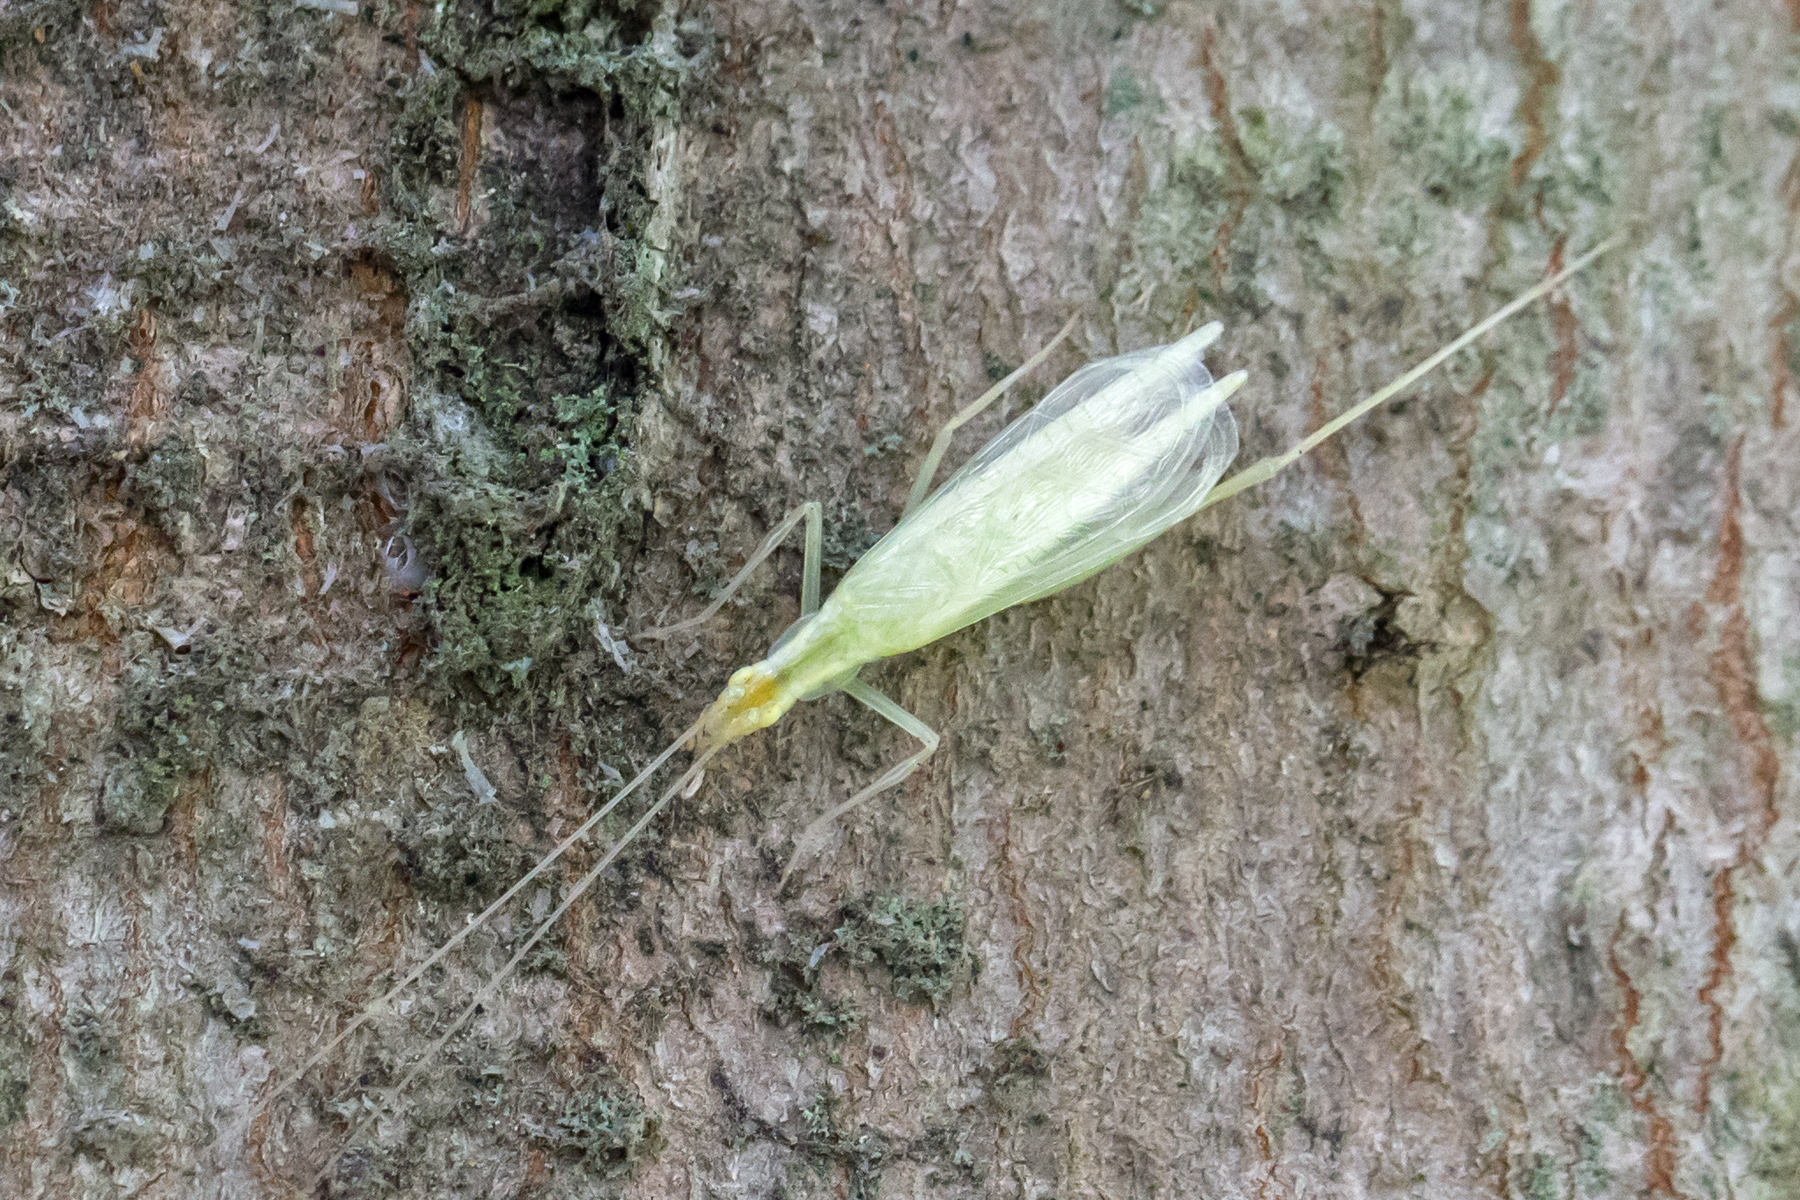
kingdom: Animalia
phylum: Arthropoda
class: Insecta
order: Orthoptera
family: Gryllidae
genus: Oecanthus
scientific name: Oecanthus niveus
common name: Narrow-winged tree cricket
